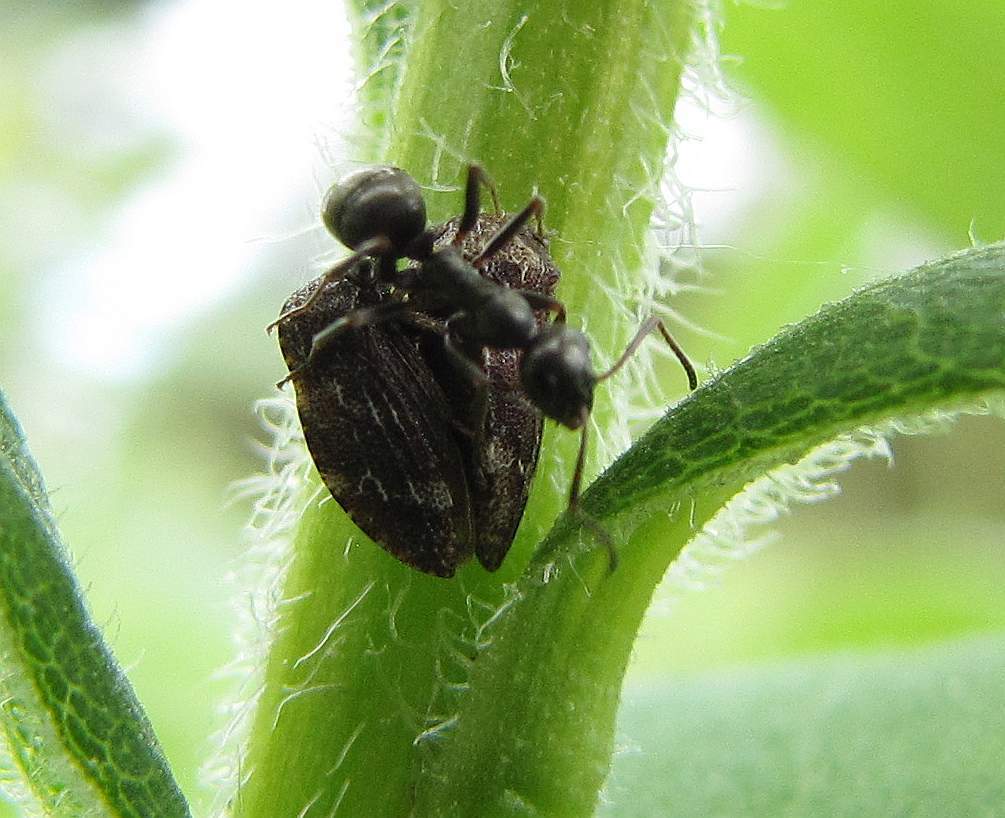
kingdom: Animalia
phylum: Arthropoda
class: Insecta
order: Hemiptera
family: Membracidae
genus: Publilia
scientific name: Publilia concava
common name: Aster treehopper
